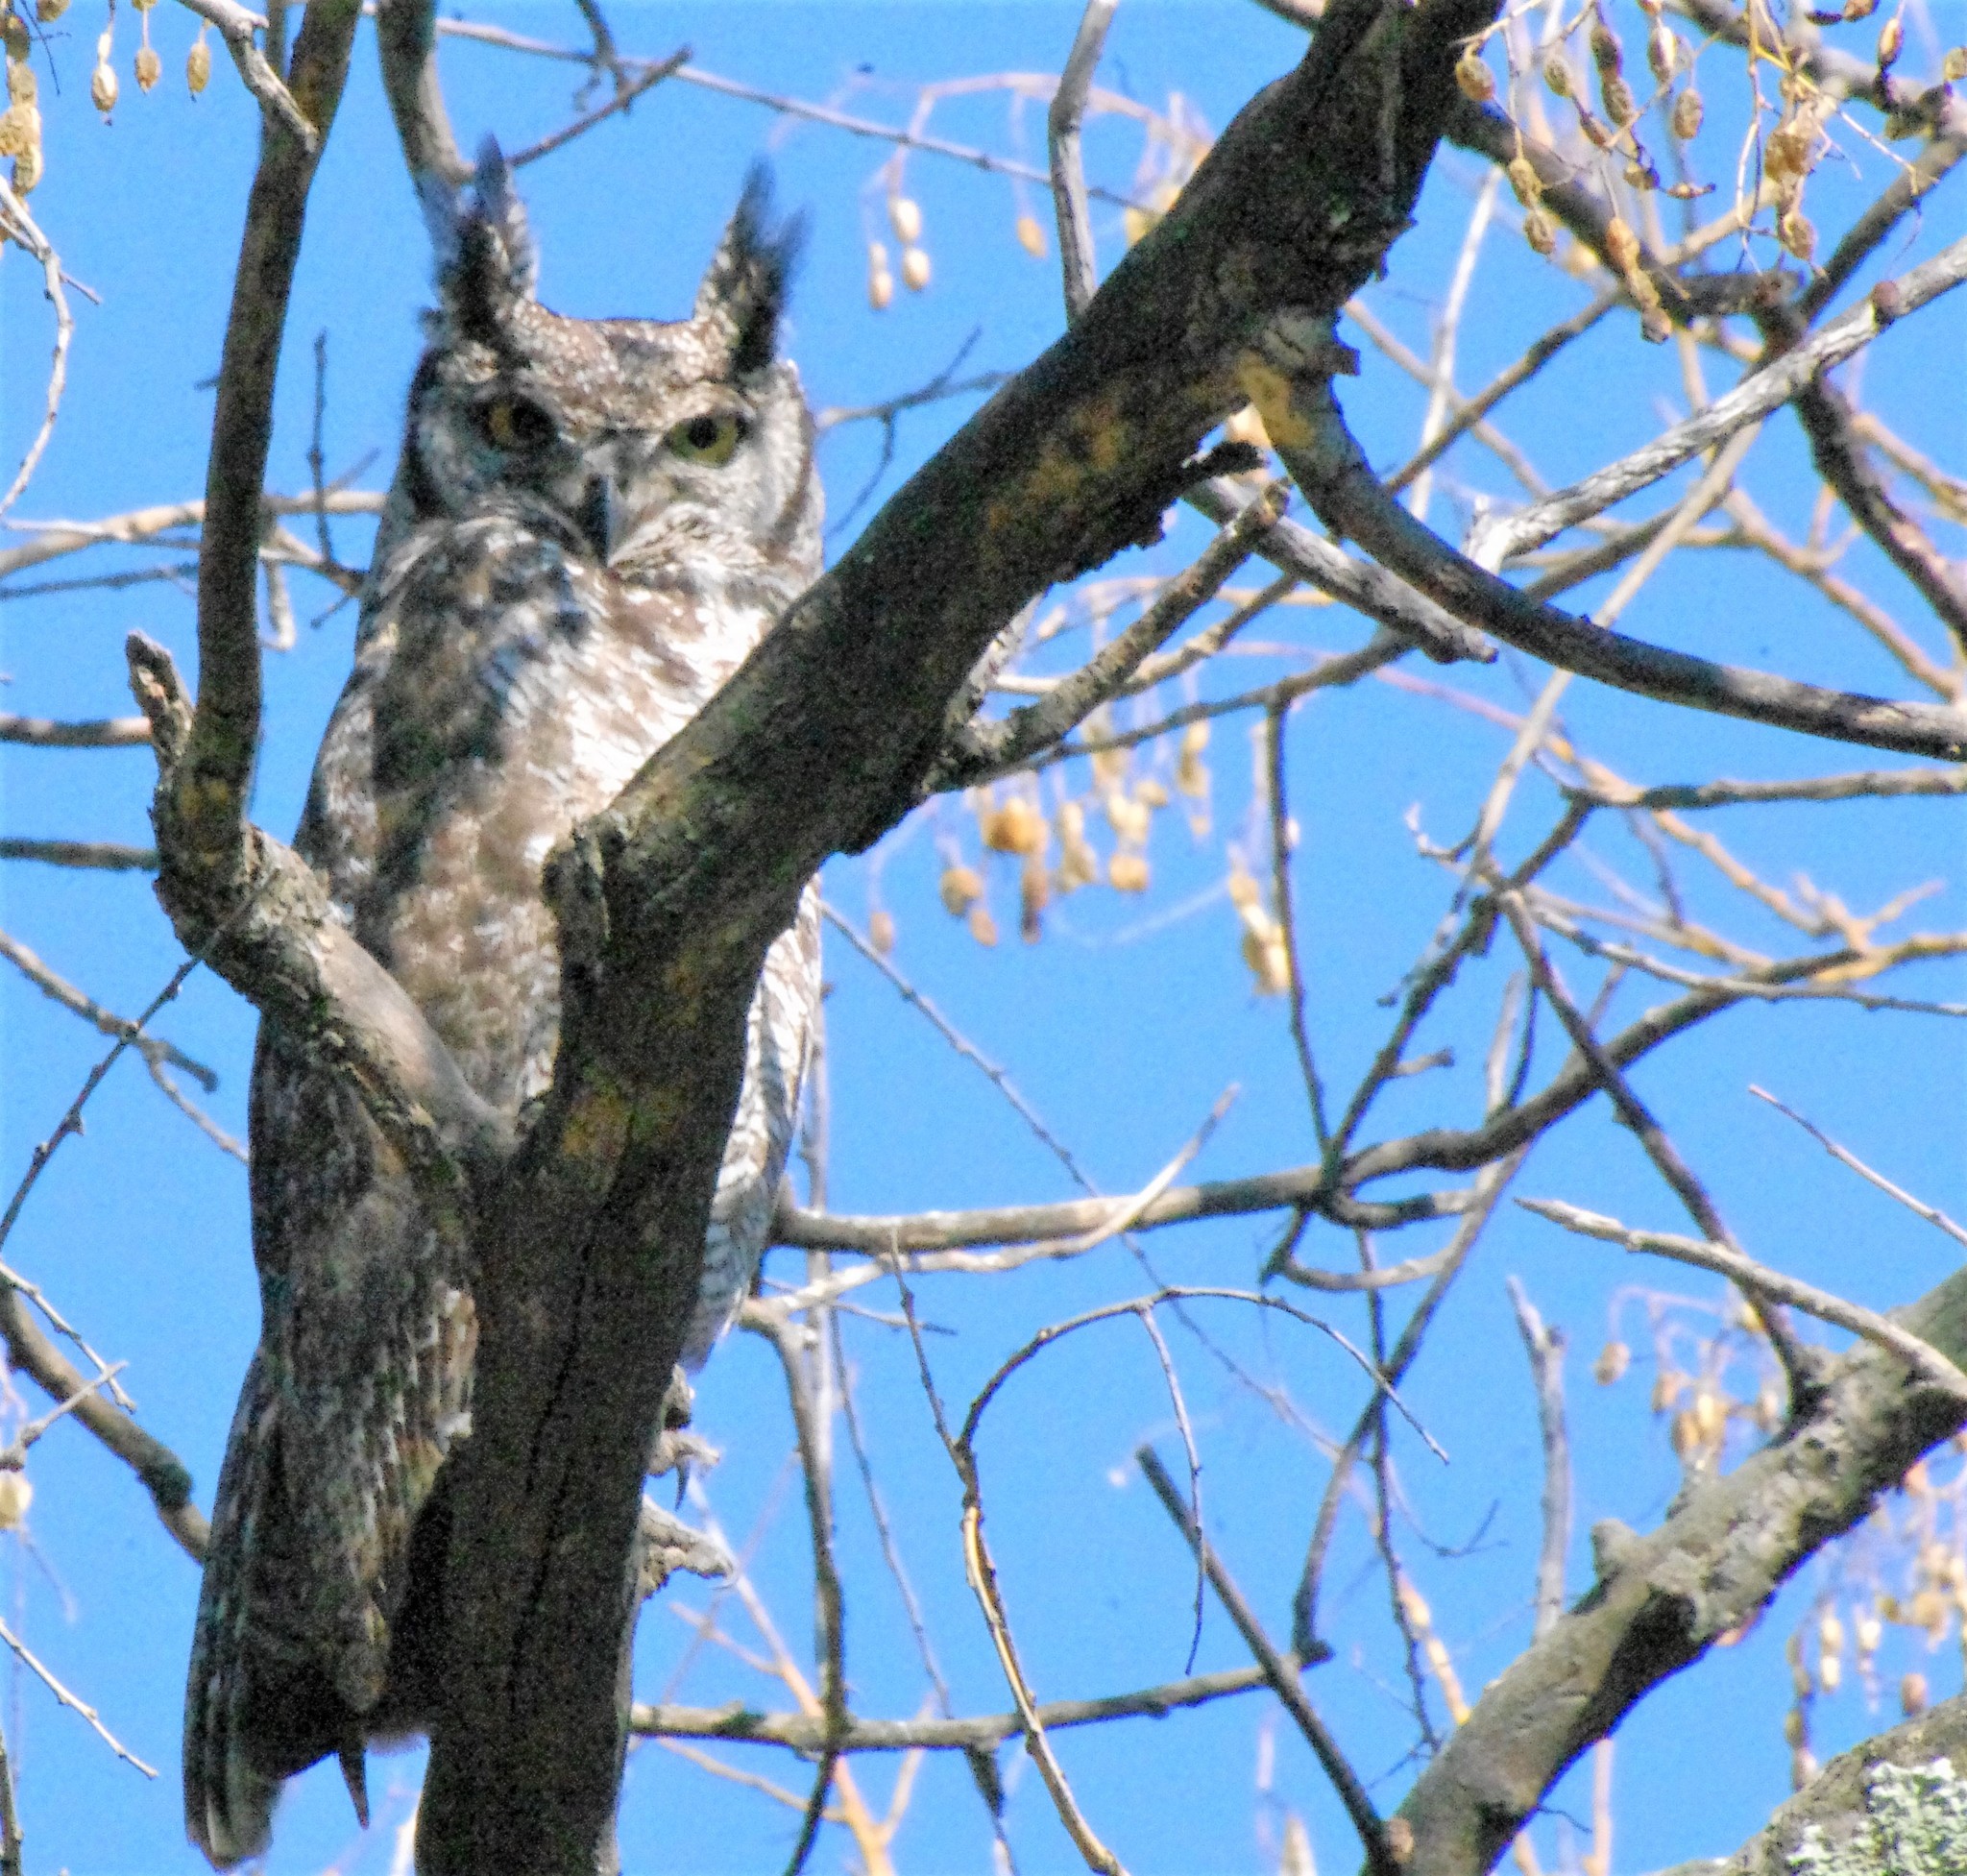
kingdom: Animalia
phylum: Chordata
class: Aves
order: Strigiformes
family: Strigidae
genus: Bubo
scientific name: Bubo africanus
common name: Spotted eagle-owl
